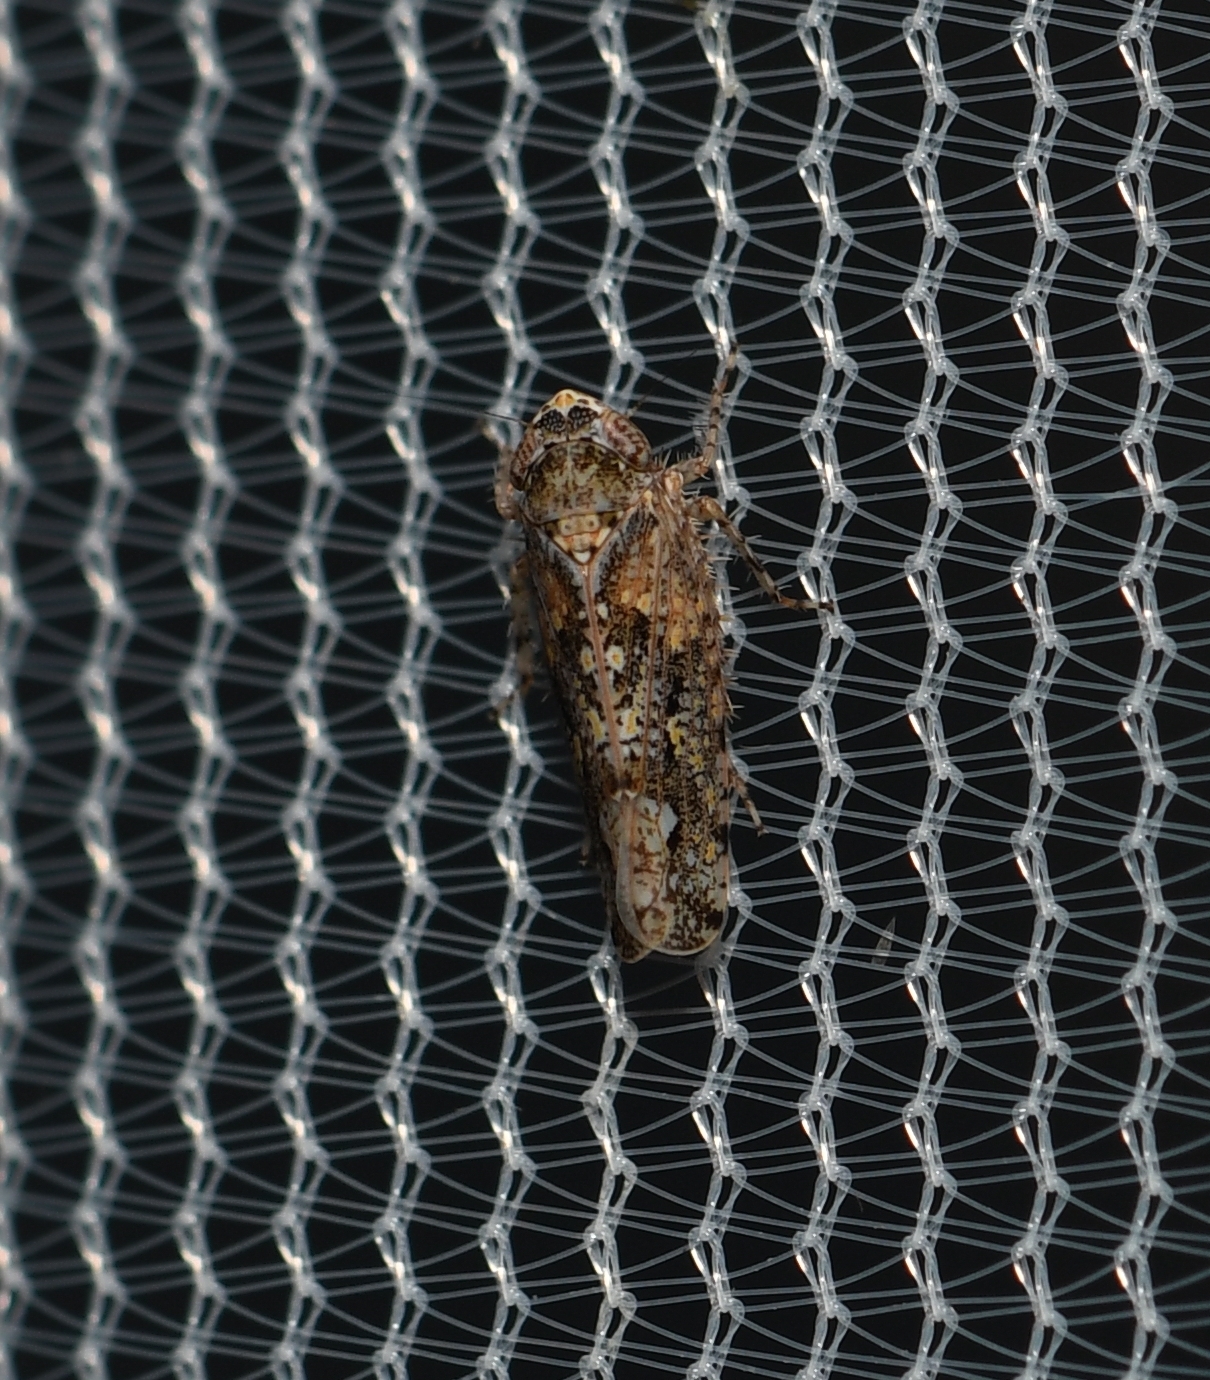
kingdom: Animalia
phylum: Arthropoda
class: Insecta
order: Hemiptera
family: Cicadellidae
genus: Dixianus
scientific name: Dixianus utahnus
